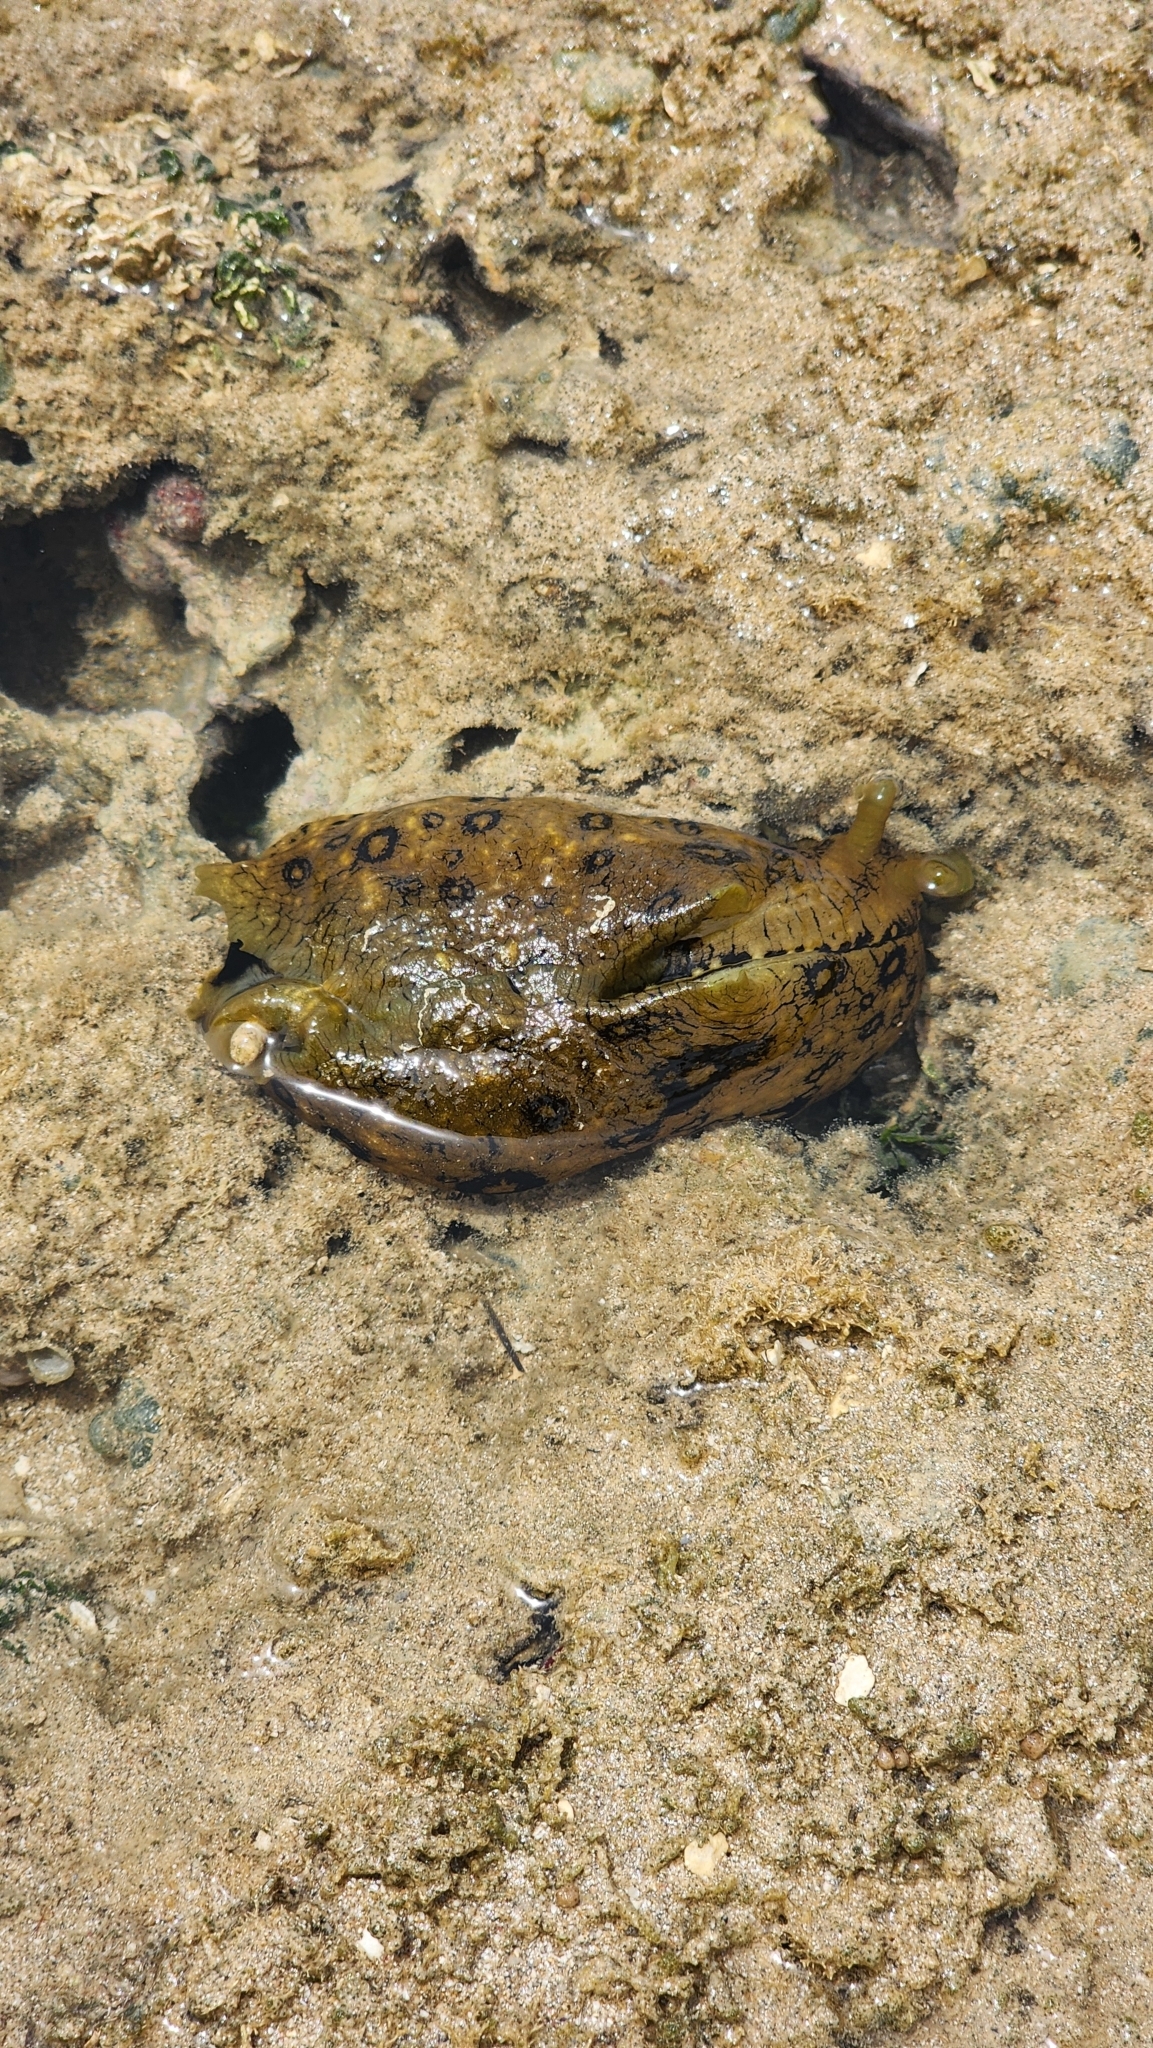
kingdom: Animalia
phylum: Mollusca
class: Gastropoda
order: Aplysiida
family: Aplysiidae
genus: Aplysia
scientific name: Aplysia dactylomela
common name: Large-spotted sea hare
